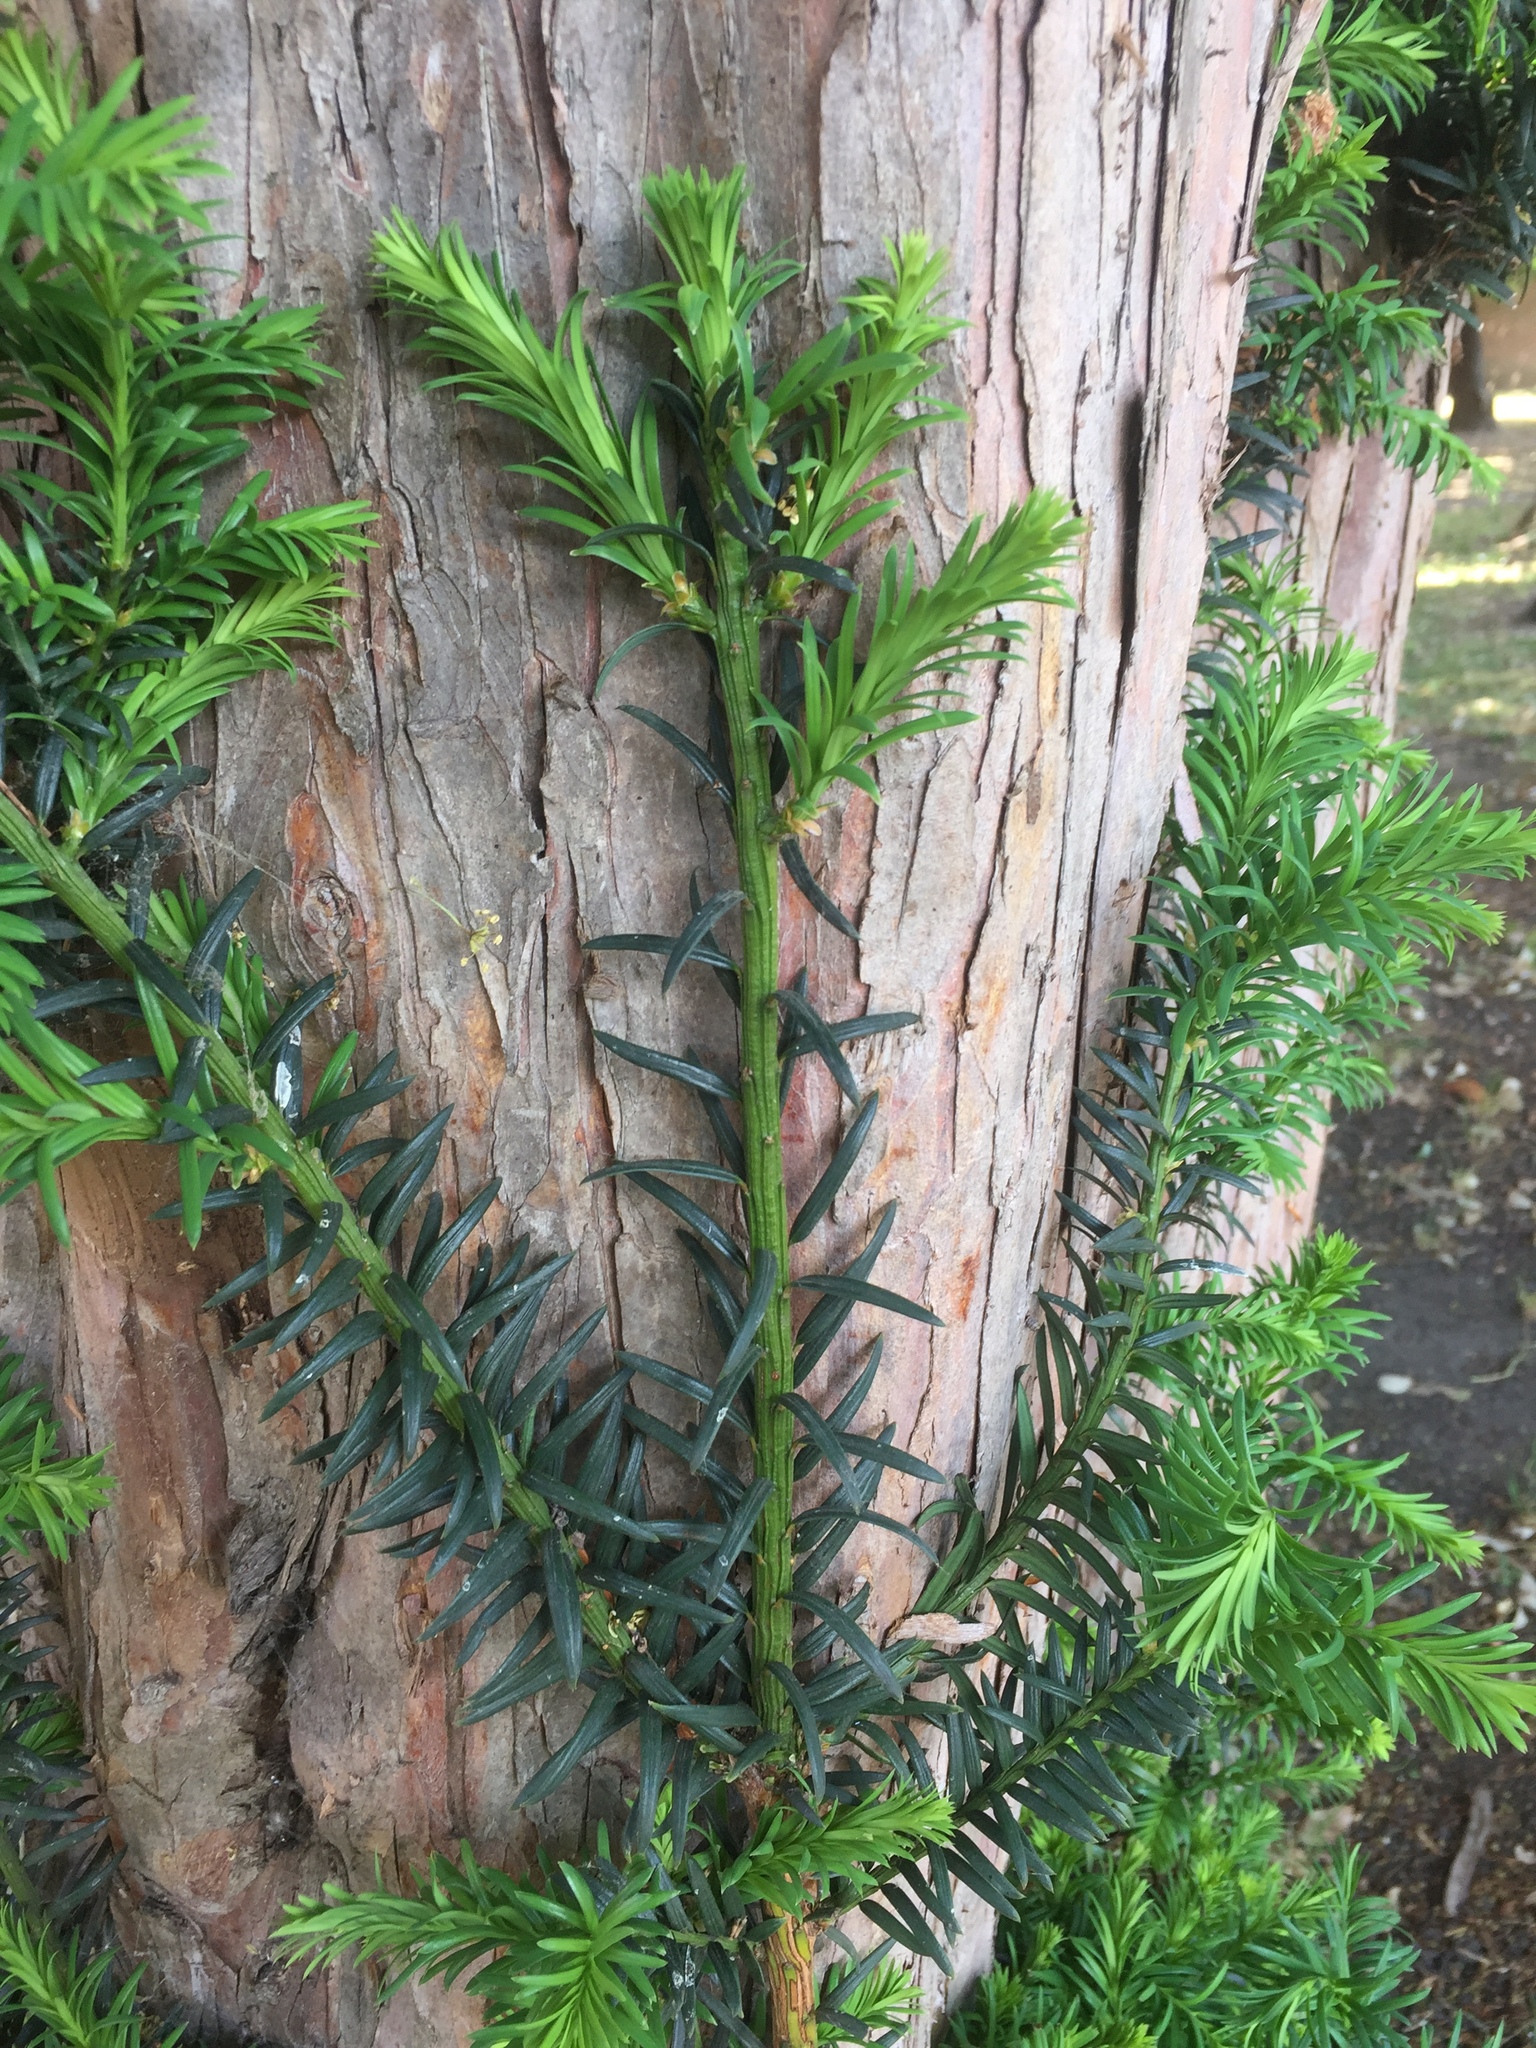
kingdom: Plantae
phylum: Tracheophyta
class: Pinopsida
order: Pinales
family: Taxaceae
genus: Taxus
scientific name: Taxus baccata
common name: Yew
